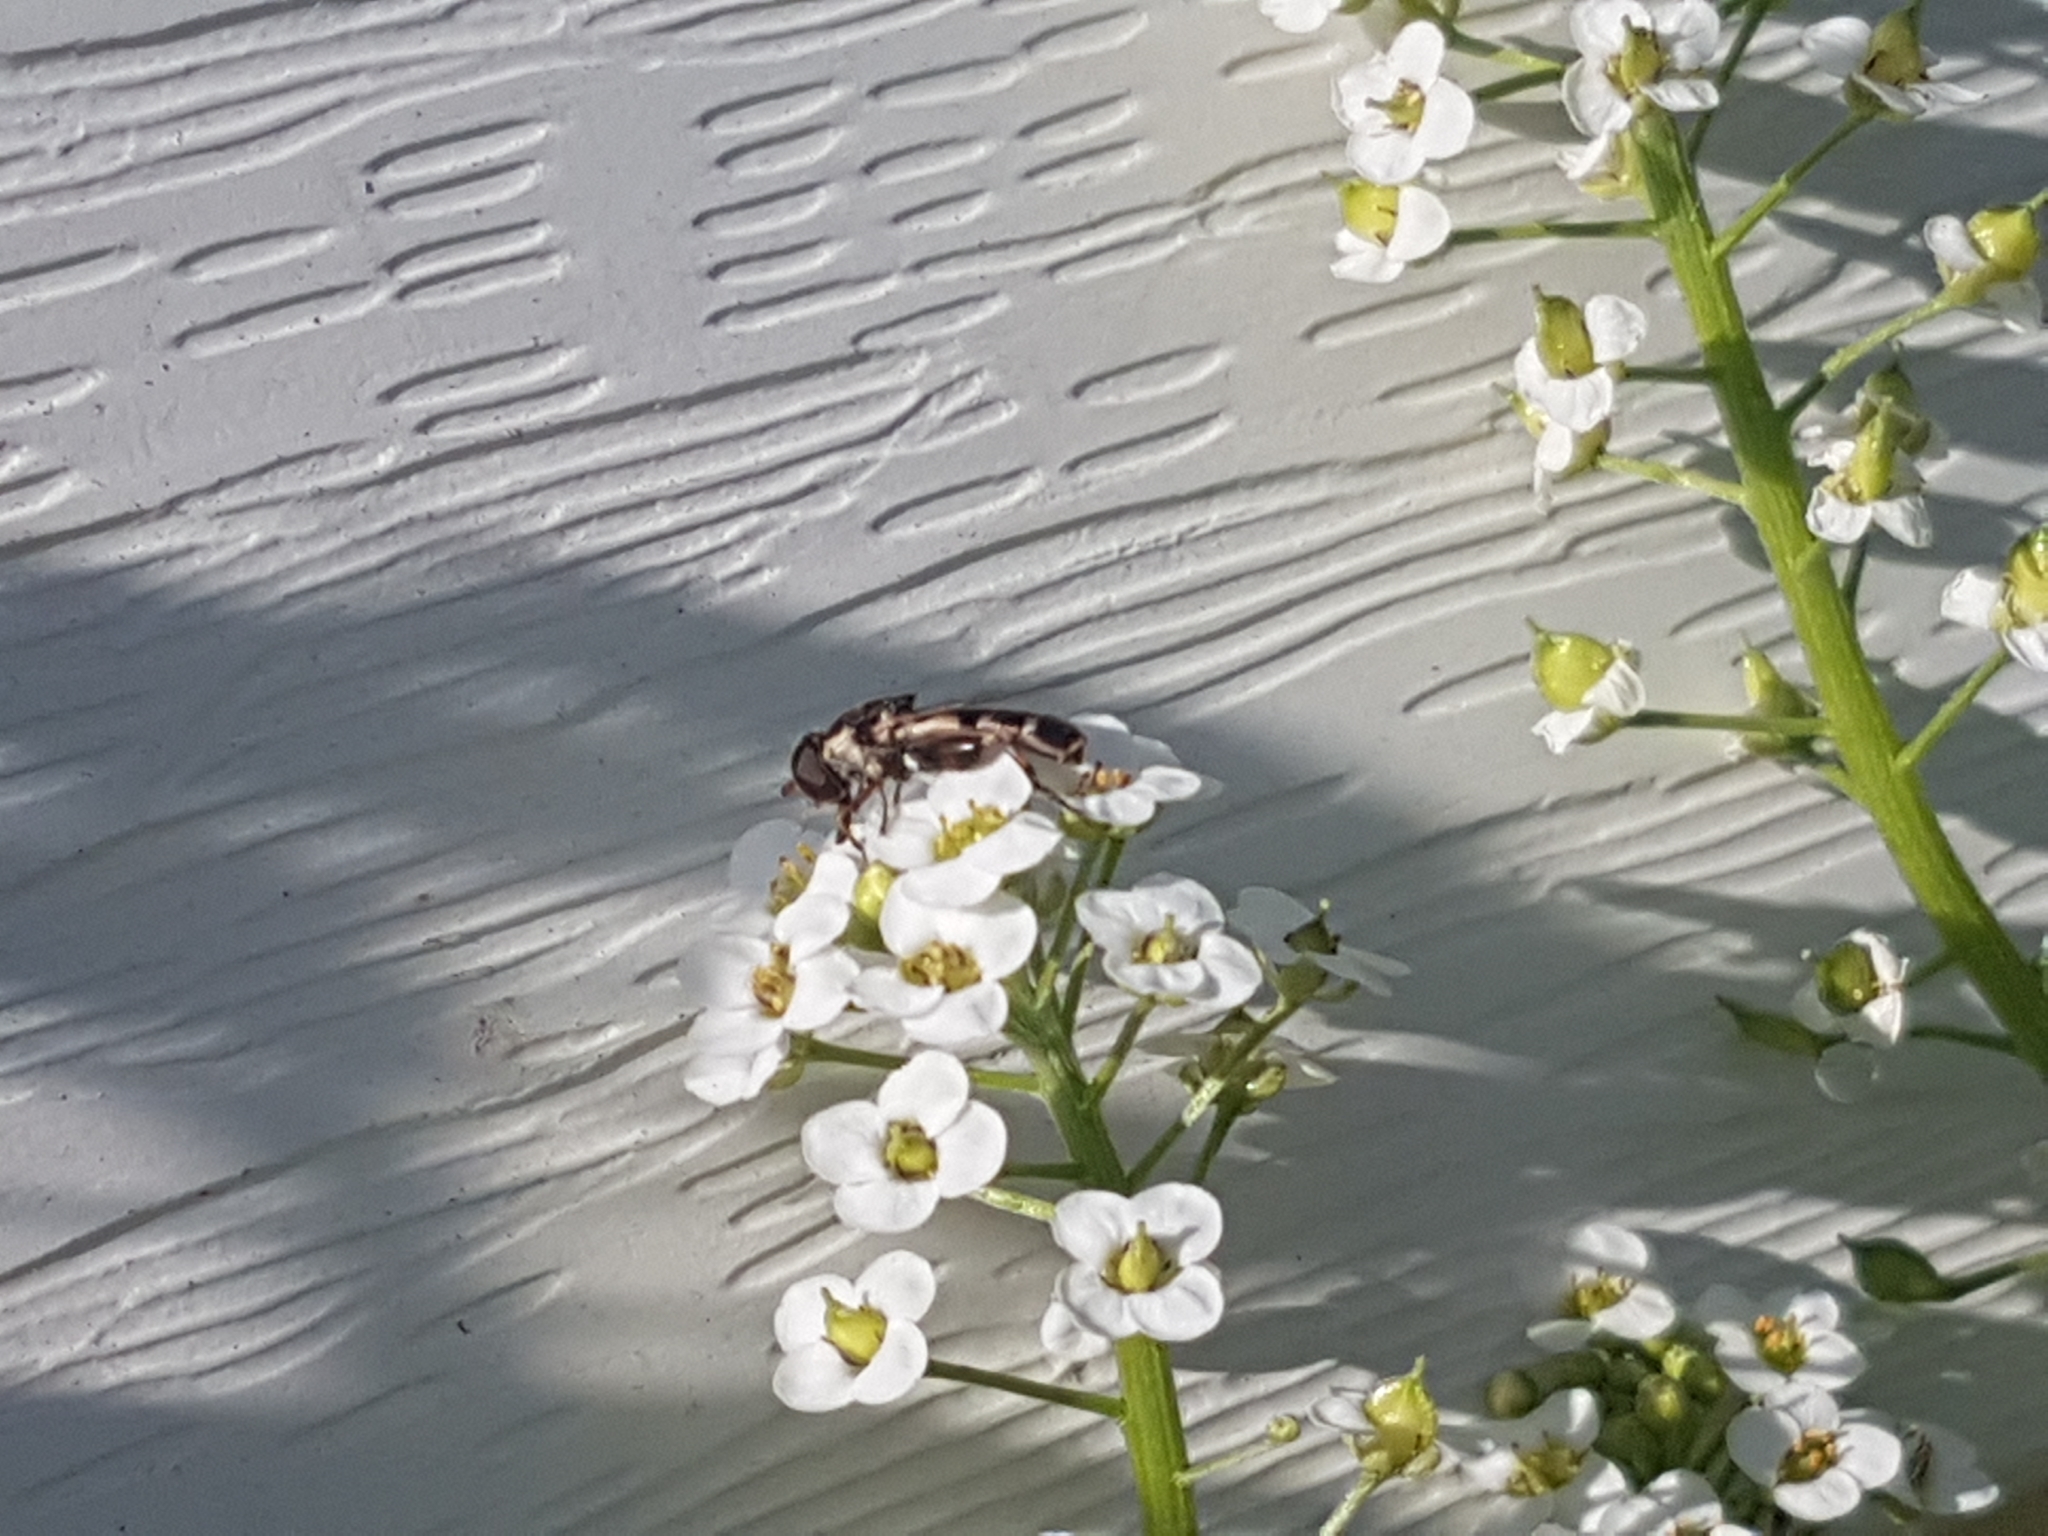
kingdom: Animalia
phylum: Arthropoda
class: Insecta
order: Diptera
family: Syrphidae
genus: Syritta
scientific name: Syritta pipiens
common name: Hover fly
